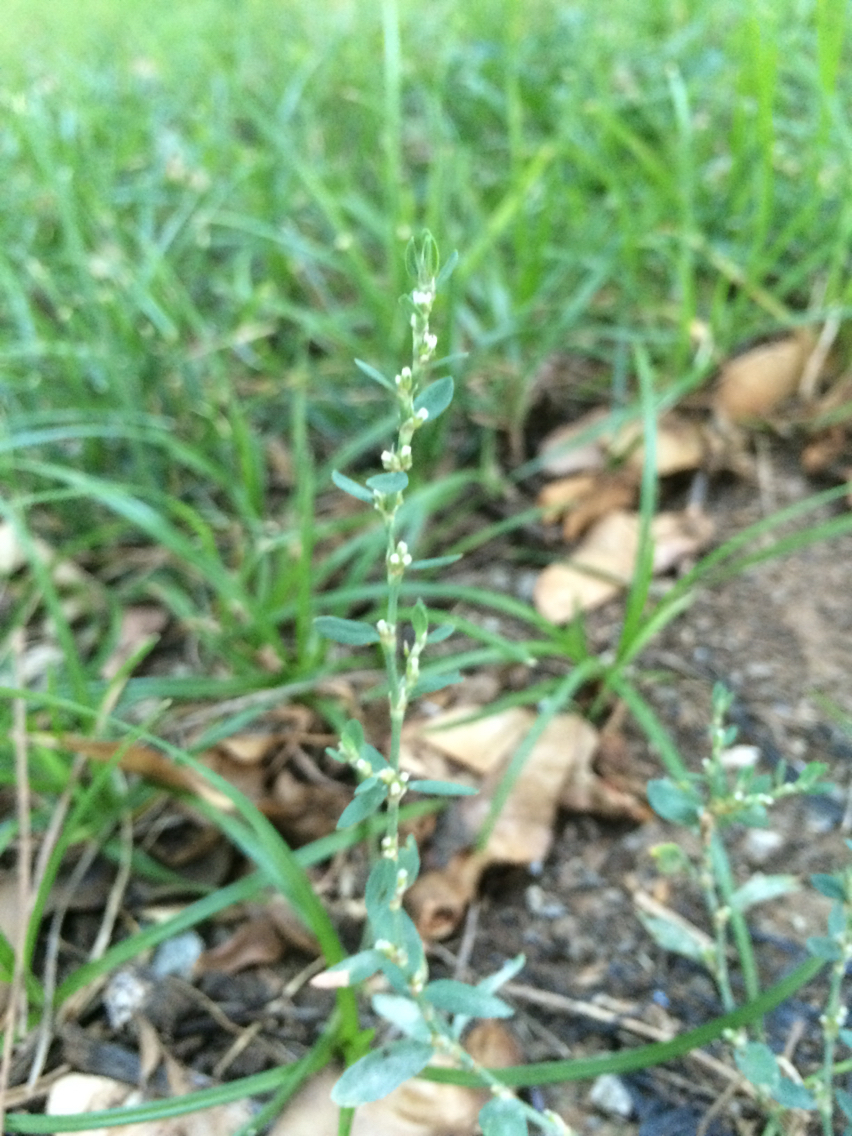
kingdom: Plantae
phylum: Tracheophyta
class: Magnoliopsida
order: Caryophyllales
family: Polygonaceae
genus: Polygonum
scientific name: Polygonum aviculare
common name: Prostrate knotweed
